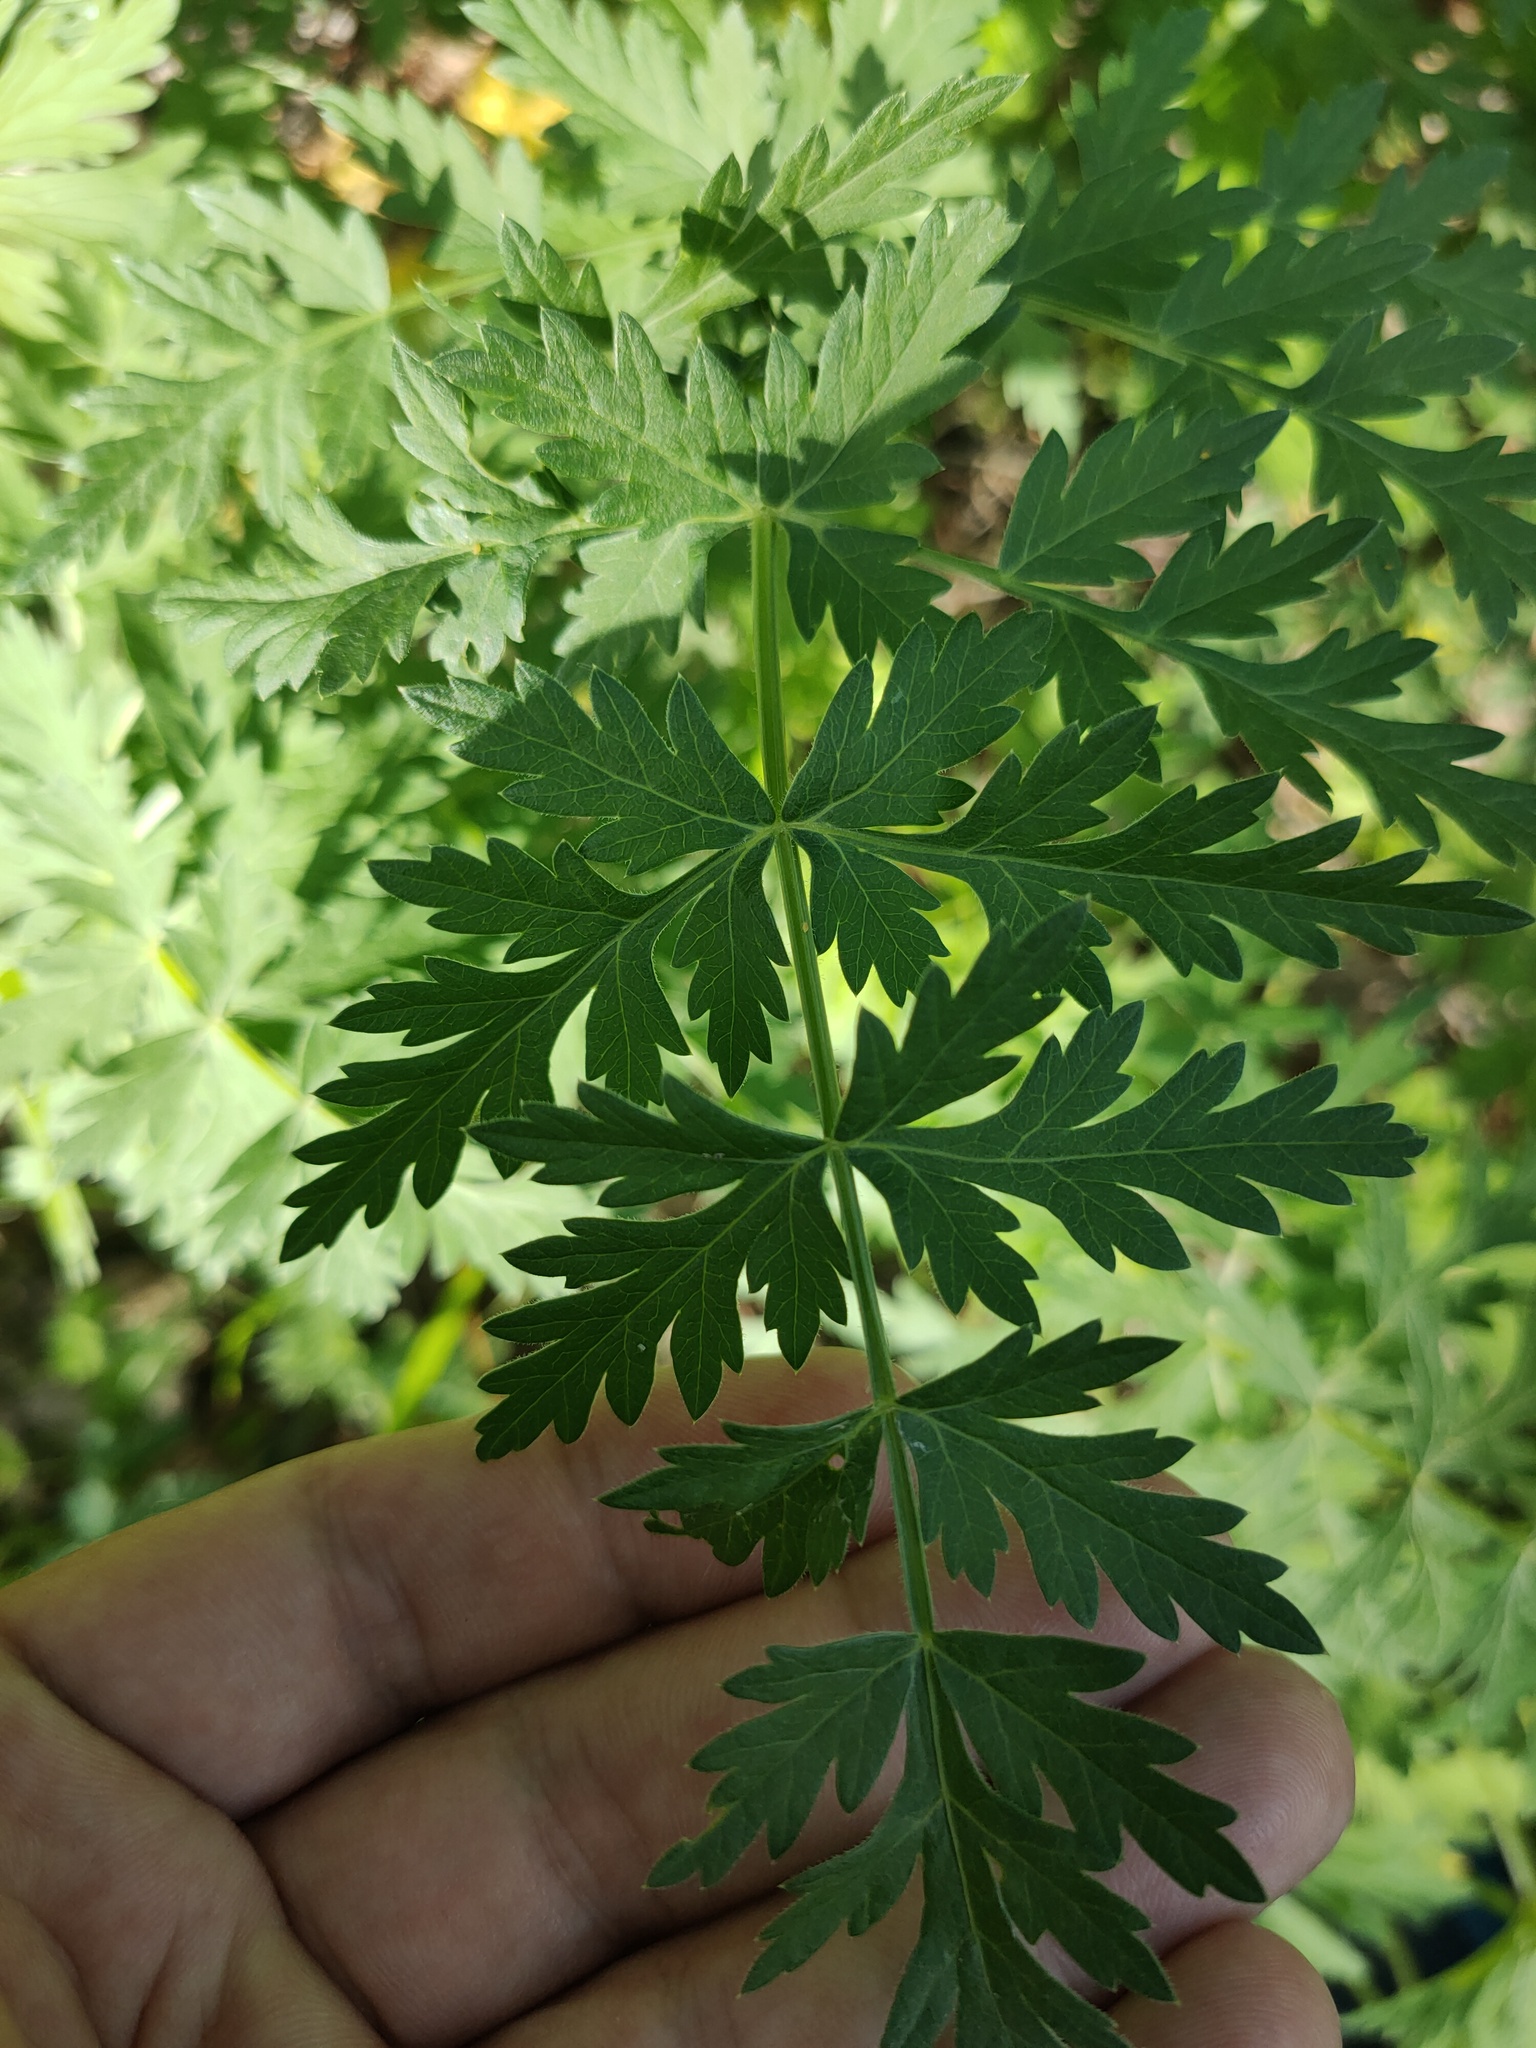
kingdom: Plantae
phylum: Tracheophyta
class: Magnoliopsida
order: Apiales
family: Apiaceae
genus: Seseli
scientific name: Seseli libanotis
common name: Mooncarrot
